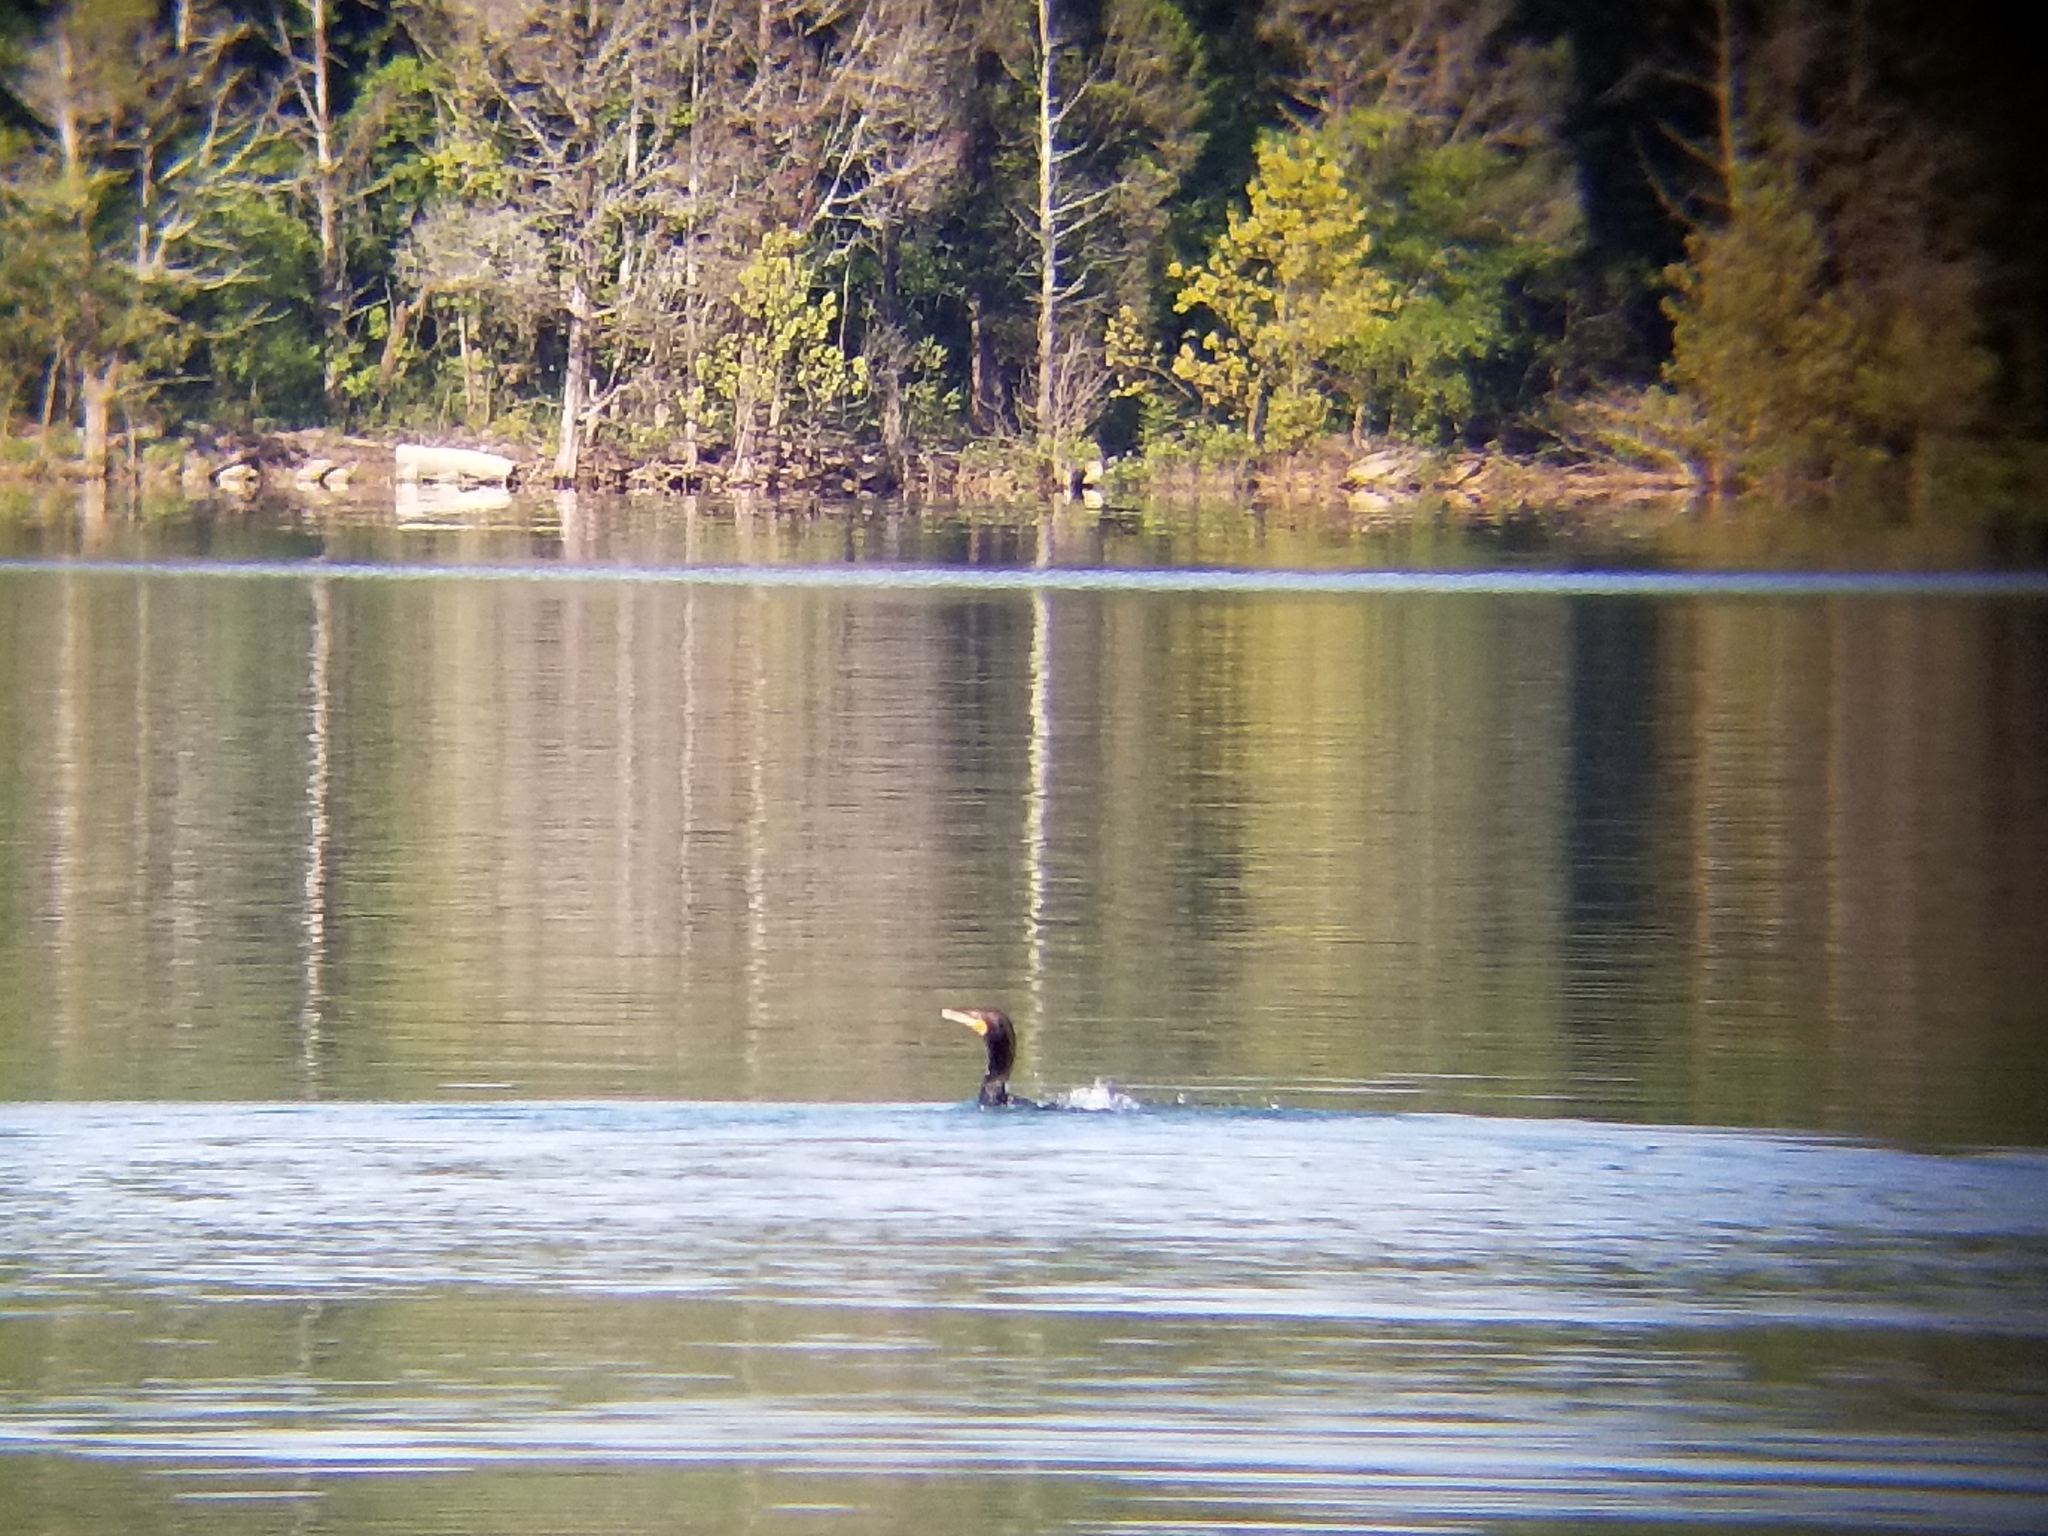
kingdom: Animalia
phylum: Chordata
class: Aves
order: Suliformes
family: Phalacrocoracidae
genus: Phalacrocorax
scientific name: Phalacrocorax auritus
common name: Double-crested cormorant
